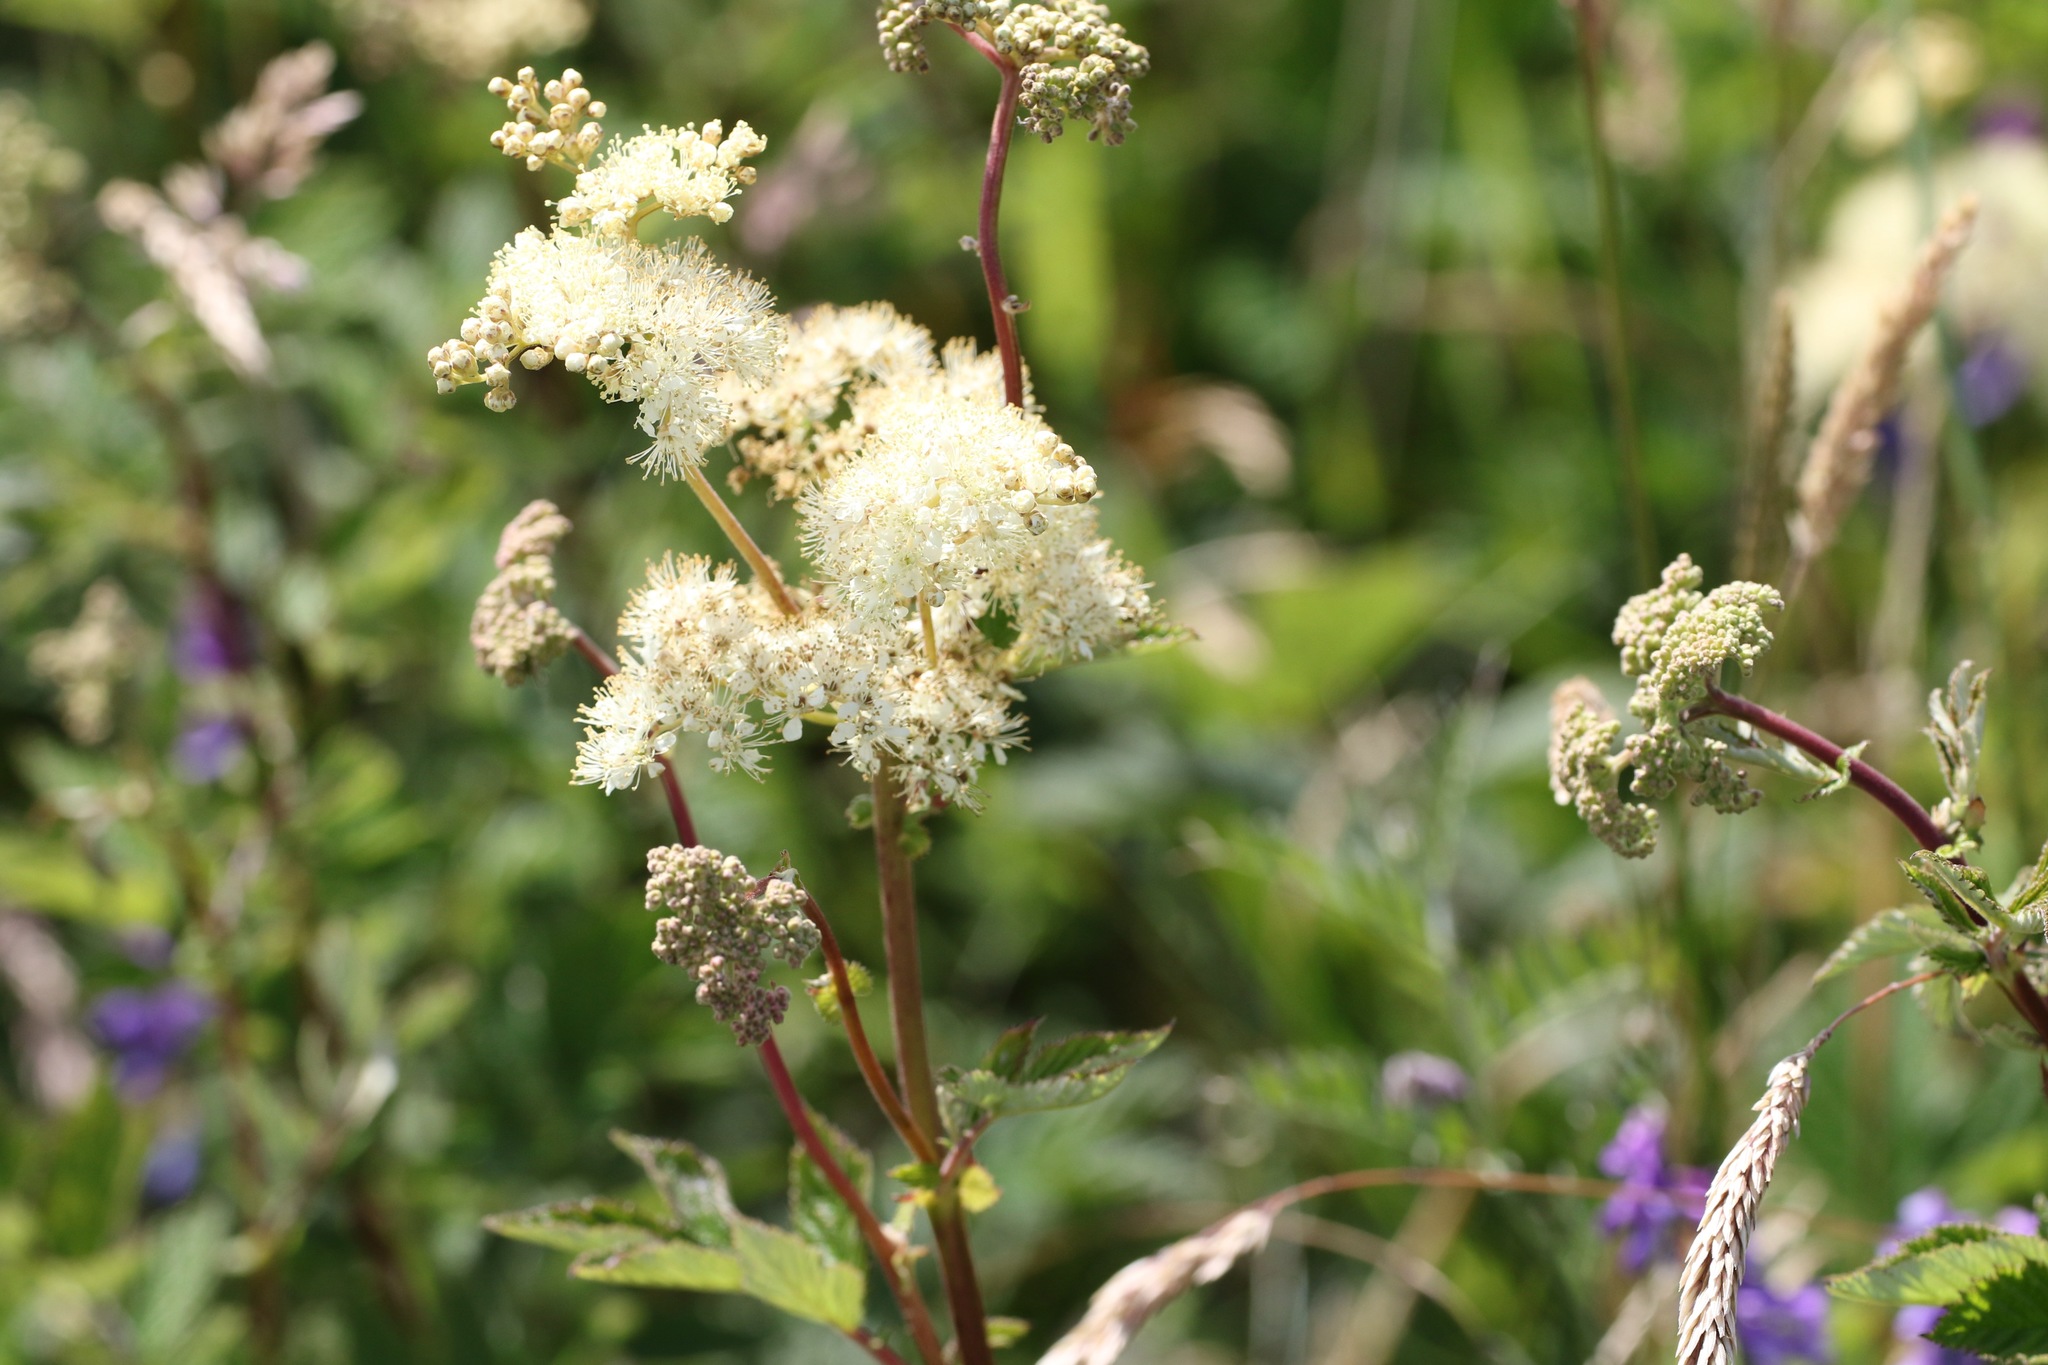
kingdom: Plantae
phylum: Tracheophyta
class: Magnoliopsida
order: Rosales
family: Rosaceae
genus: Filipendula
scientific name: Filipendula ulmaria
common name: Meadowsweet
